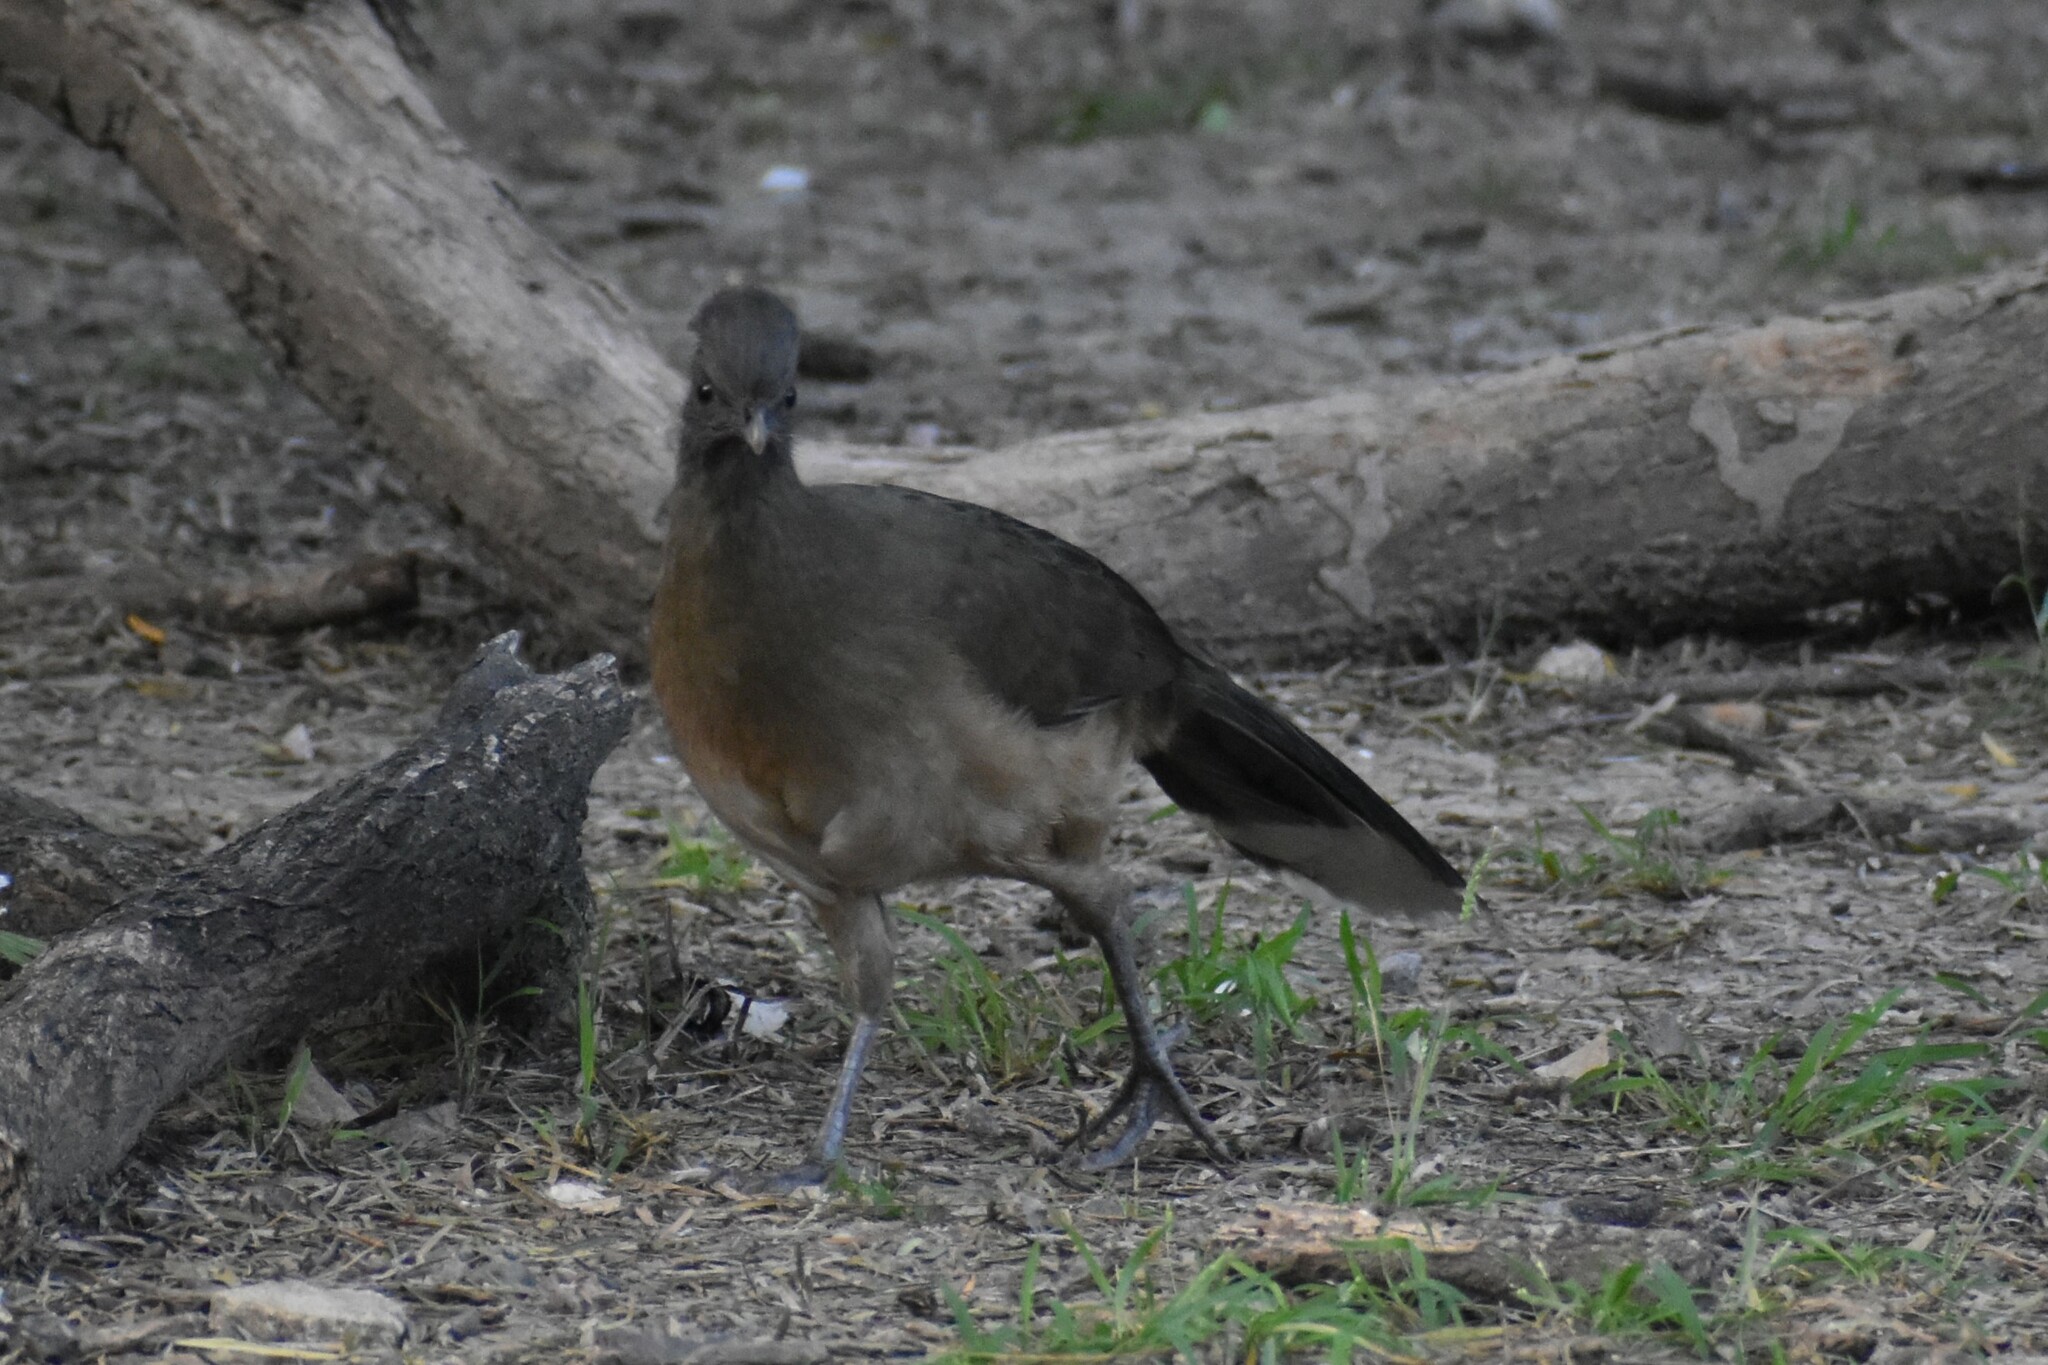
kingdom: Animalia
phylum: Chordata
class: Aves
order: Galliformes
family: Cracidae
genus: Ortalis
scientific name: Ortalis vetula
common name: Plain chachalaca
